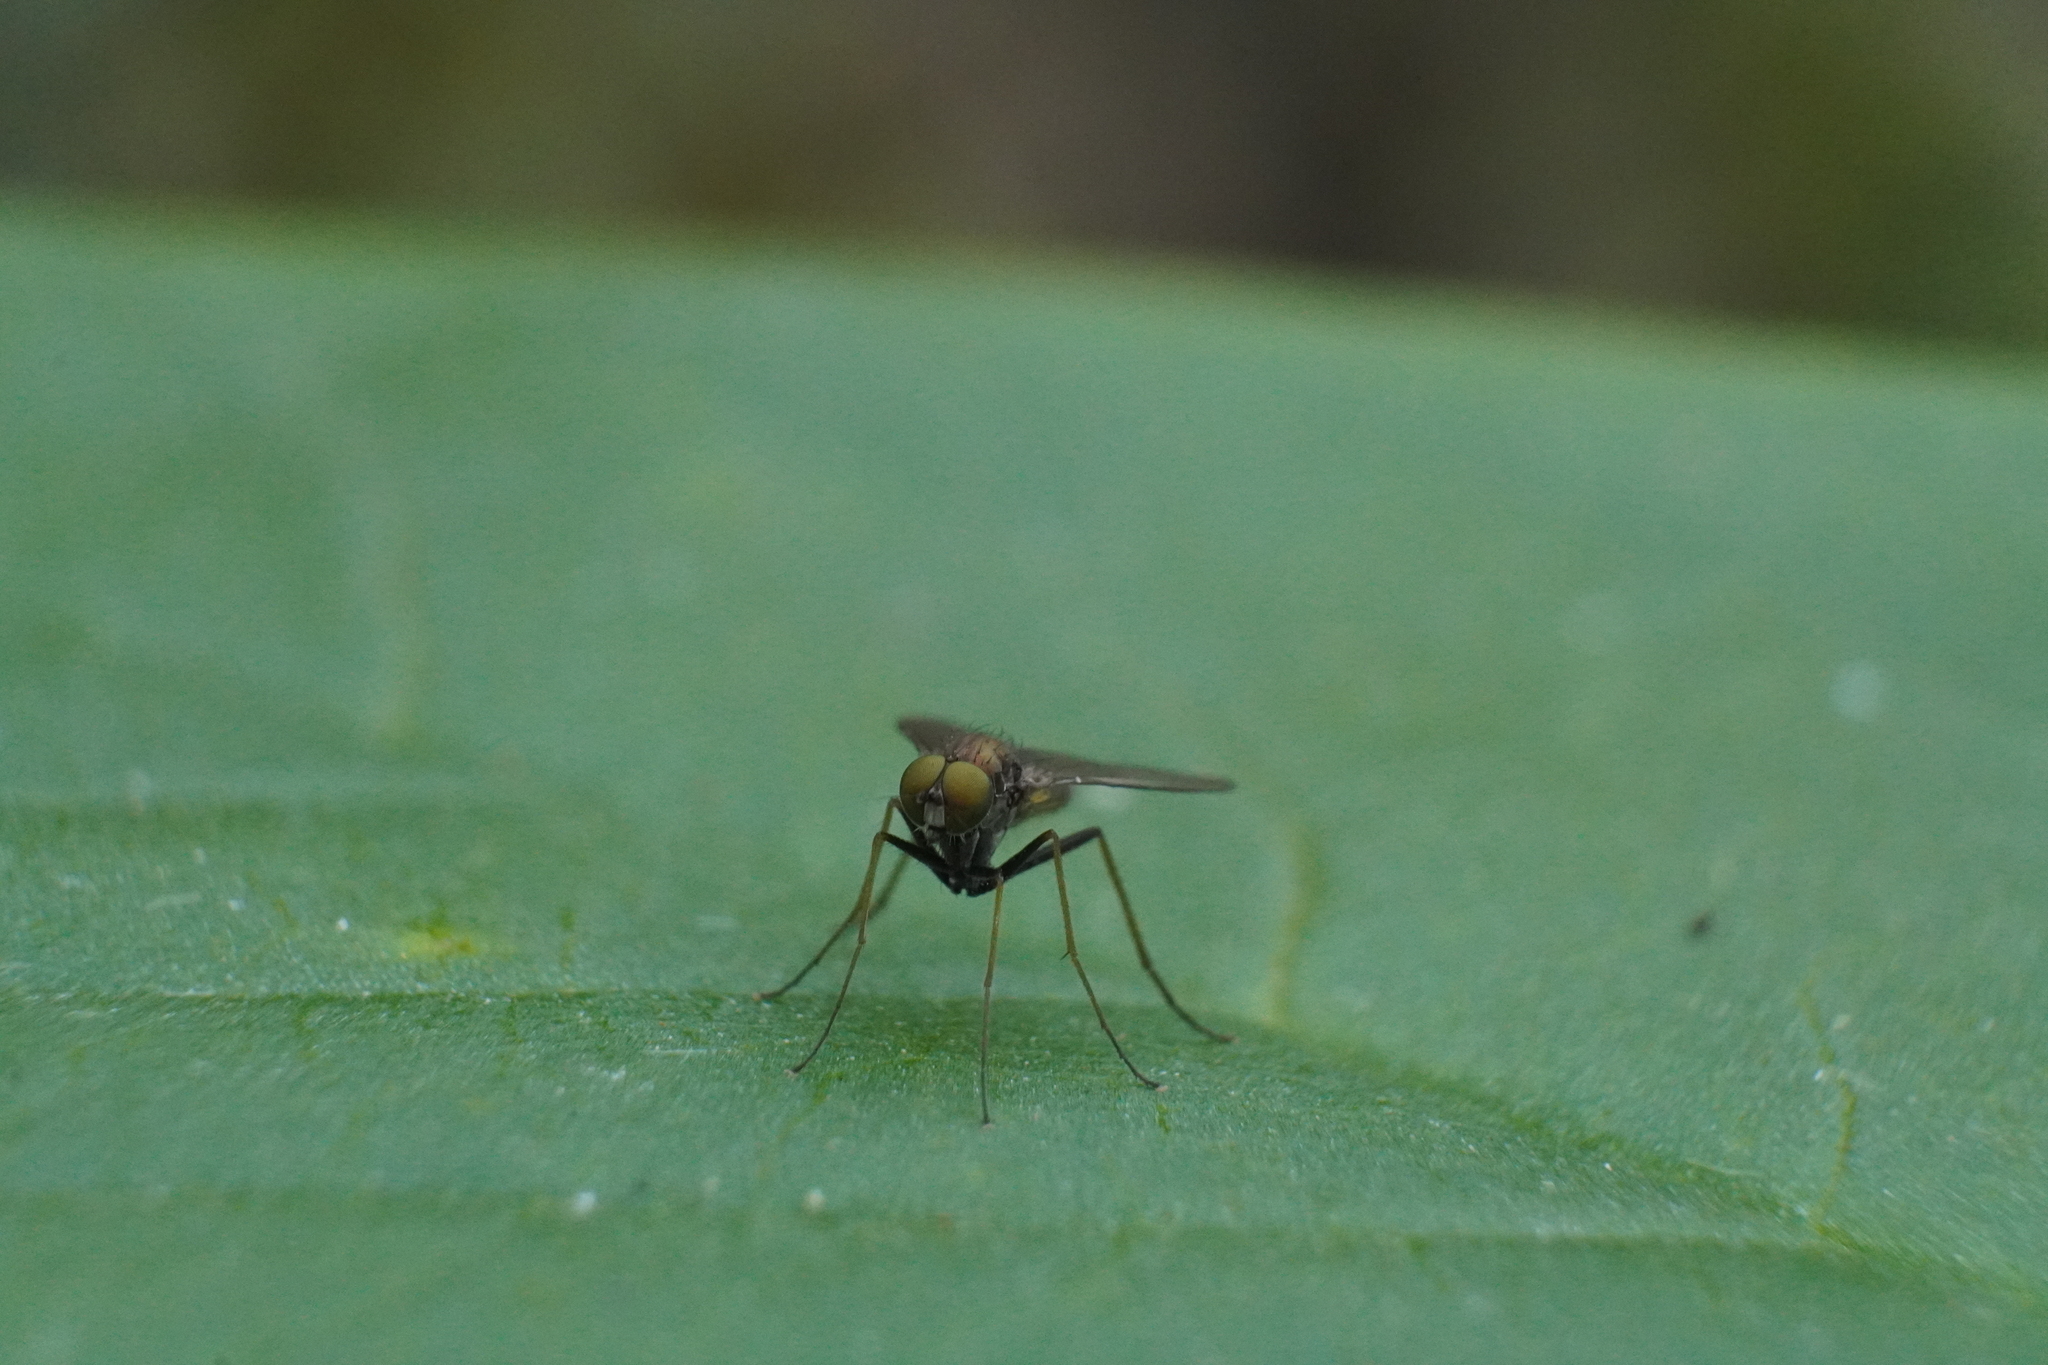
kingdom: Animalia
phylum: Arthropoda
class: Insecta
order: Diptera
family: Dolichopodidae
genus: Chrysotus
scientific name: Chrysotus spectabilis
